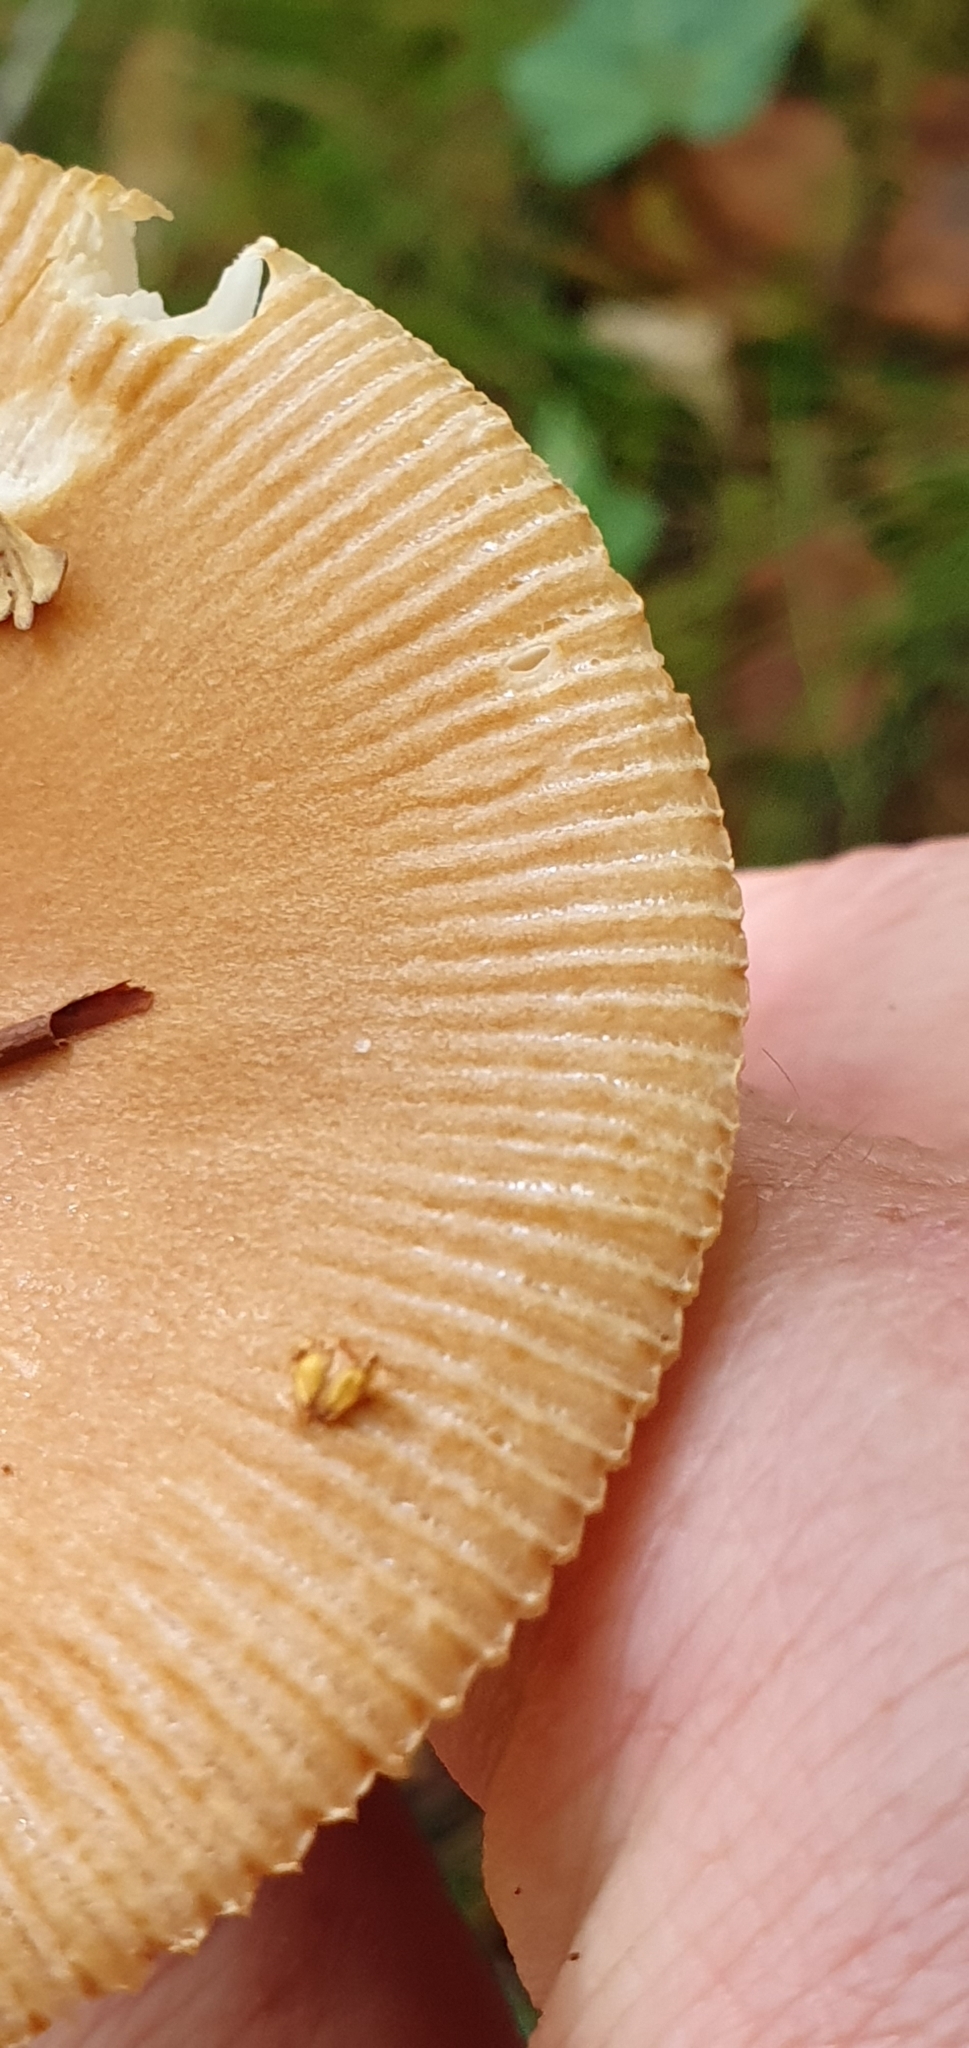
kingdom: Fungi
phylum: Basidiomycota
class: Agaricomycetes
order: Agaricales
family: Amanitaceae
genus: Amanita
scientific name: Amanita fulva
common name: Tawny grisette
